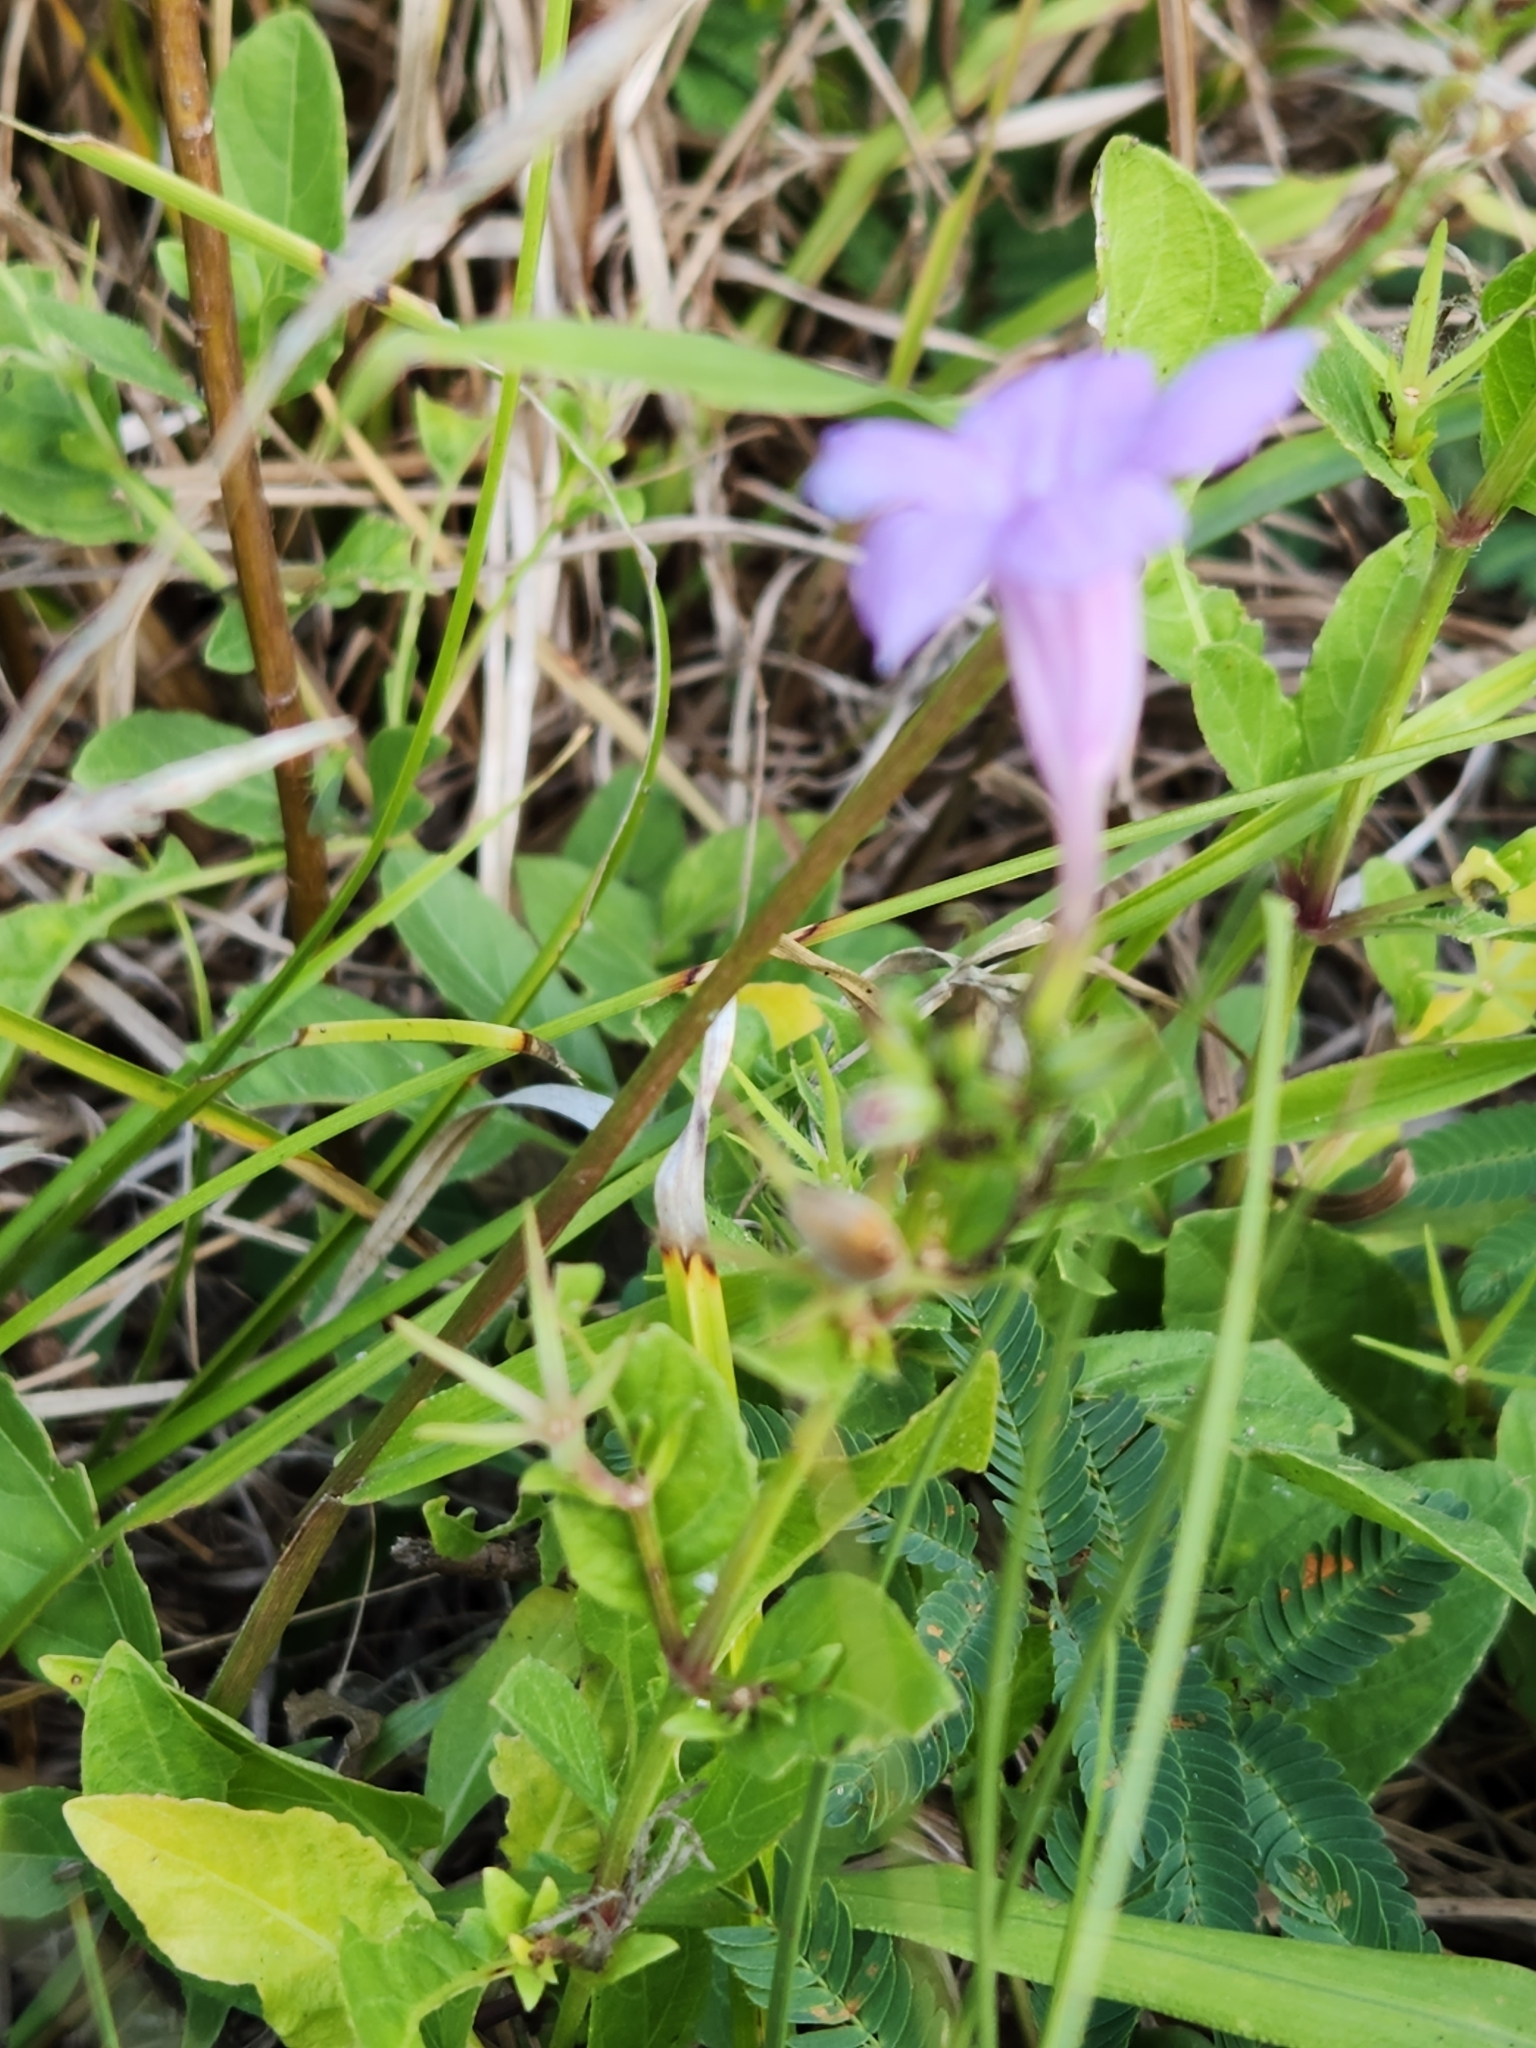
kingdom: Plantae
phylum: Tracheophyta
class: Magnoliopsida
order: Lamiales
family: Acanthaceae
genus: Ruellia
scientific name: Ruellia ciliatiflora
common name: Hairyflower wild petunia
